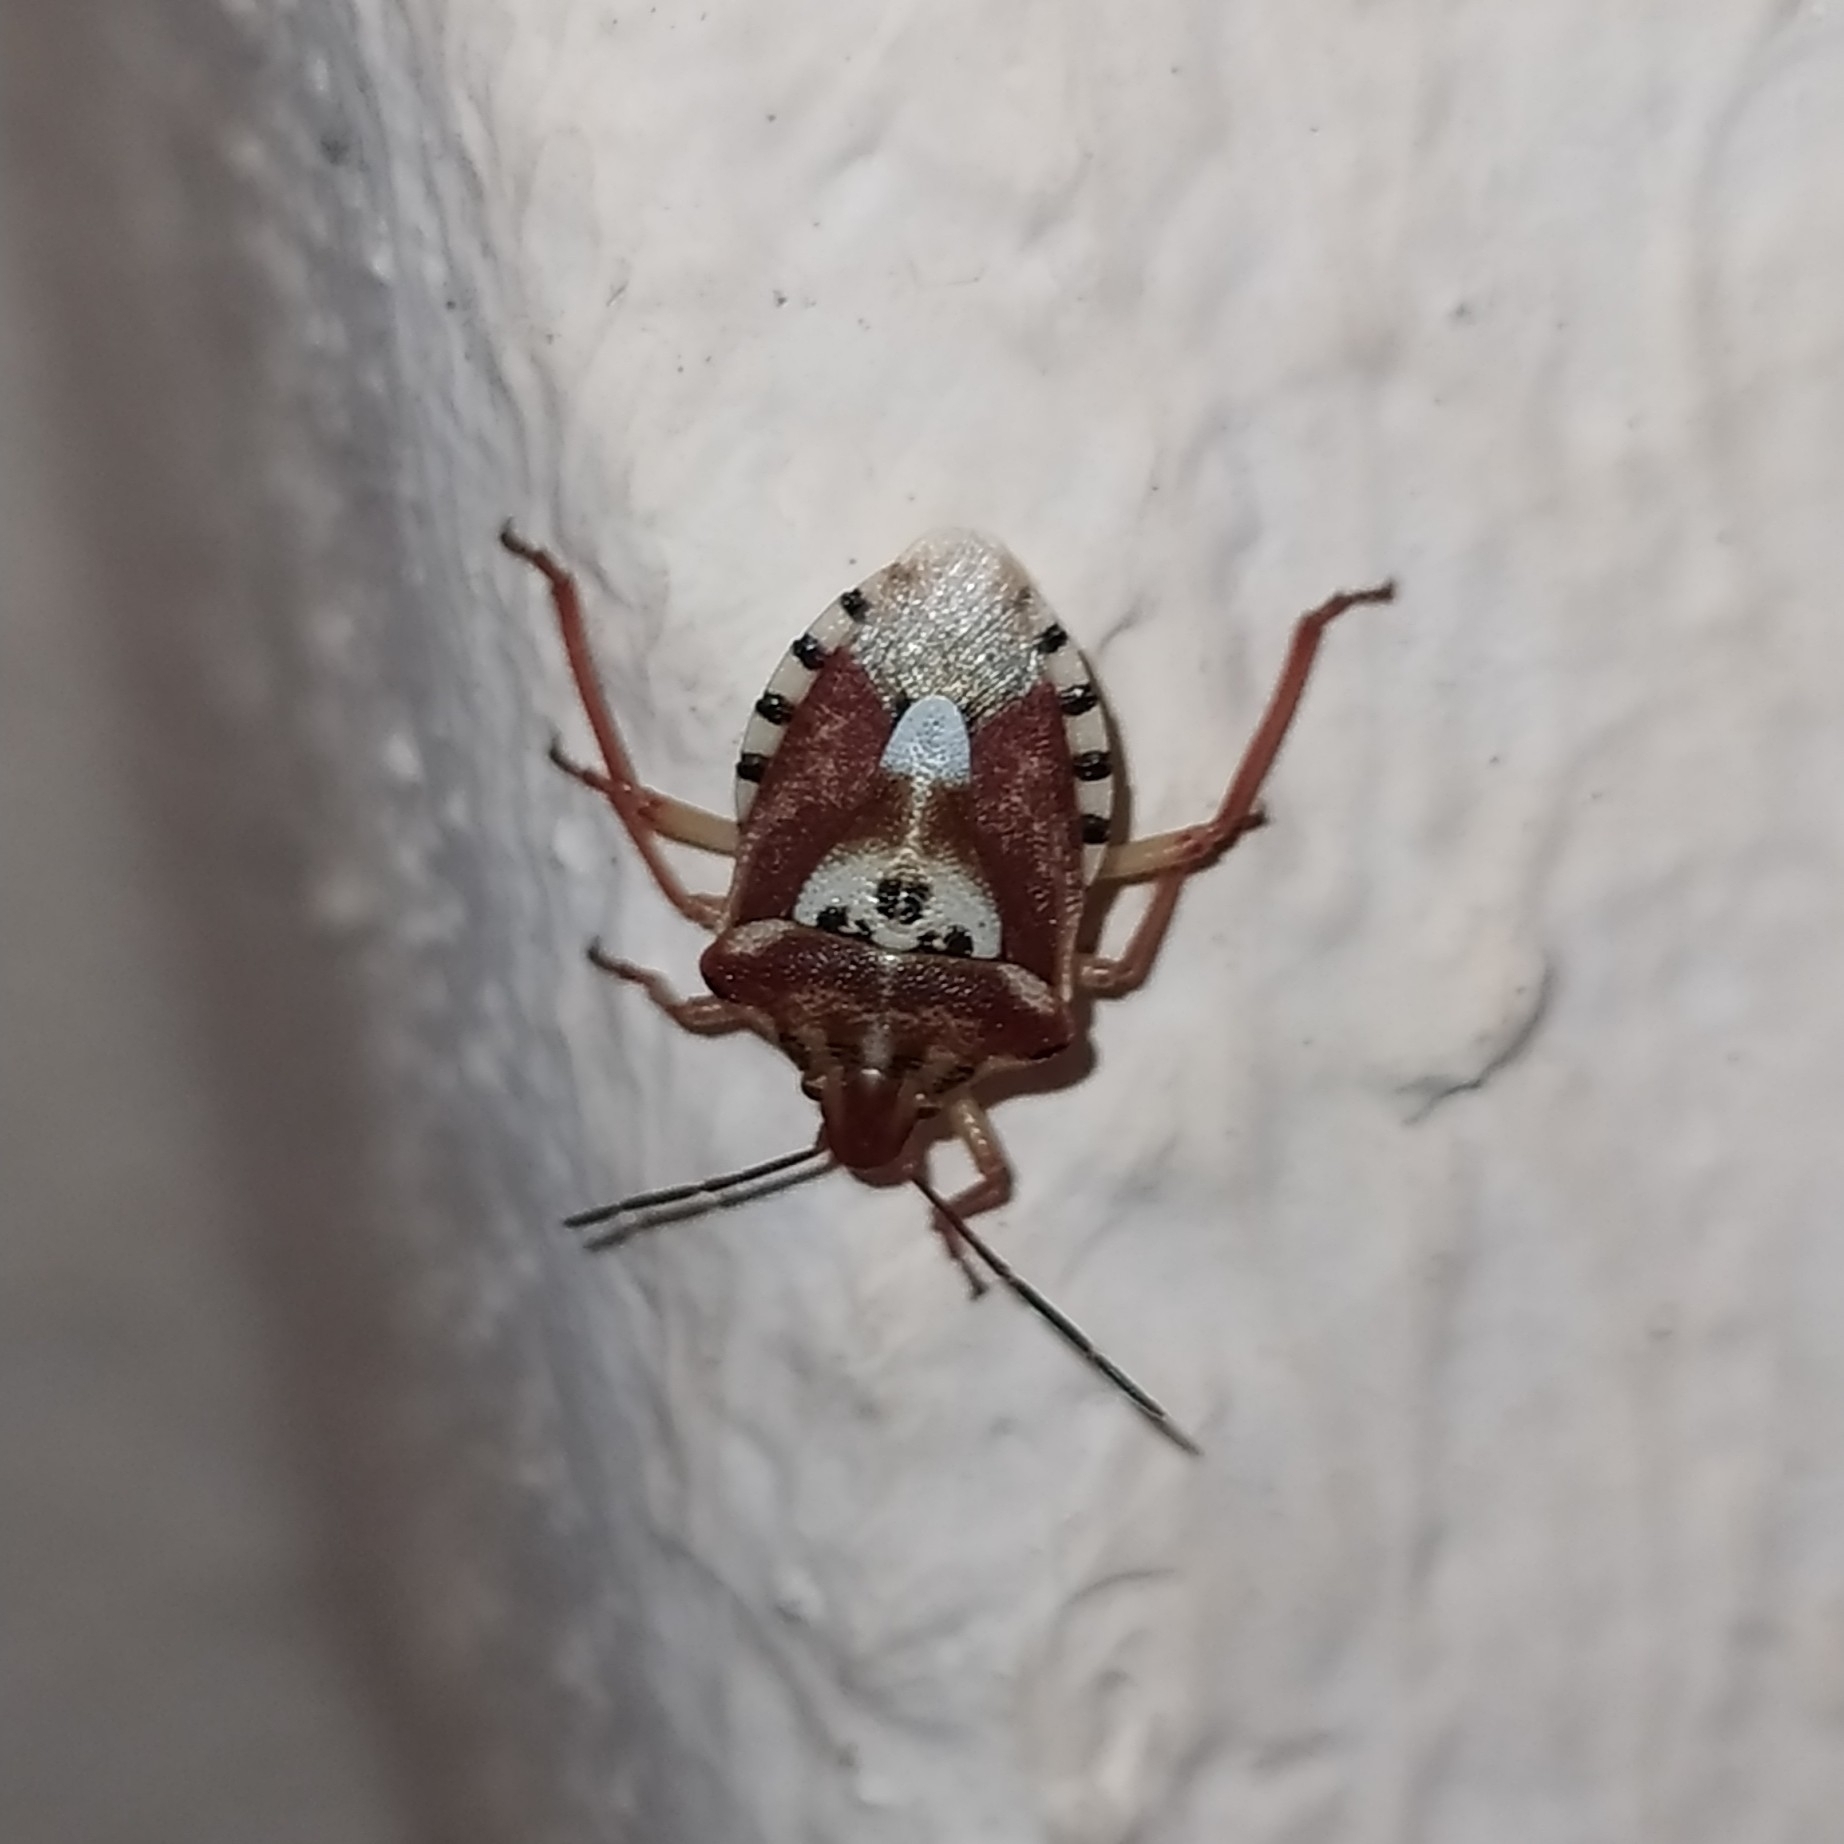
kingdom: Animalia
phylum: Arthropoda
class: Insecta
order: Hemiptera
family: Miridae
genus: Orthops
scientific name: Orthops kalmii
